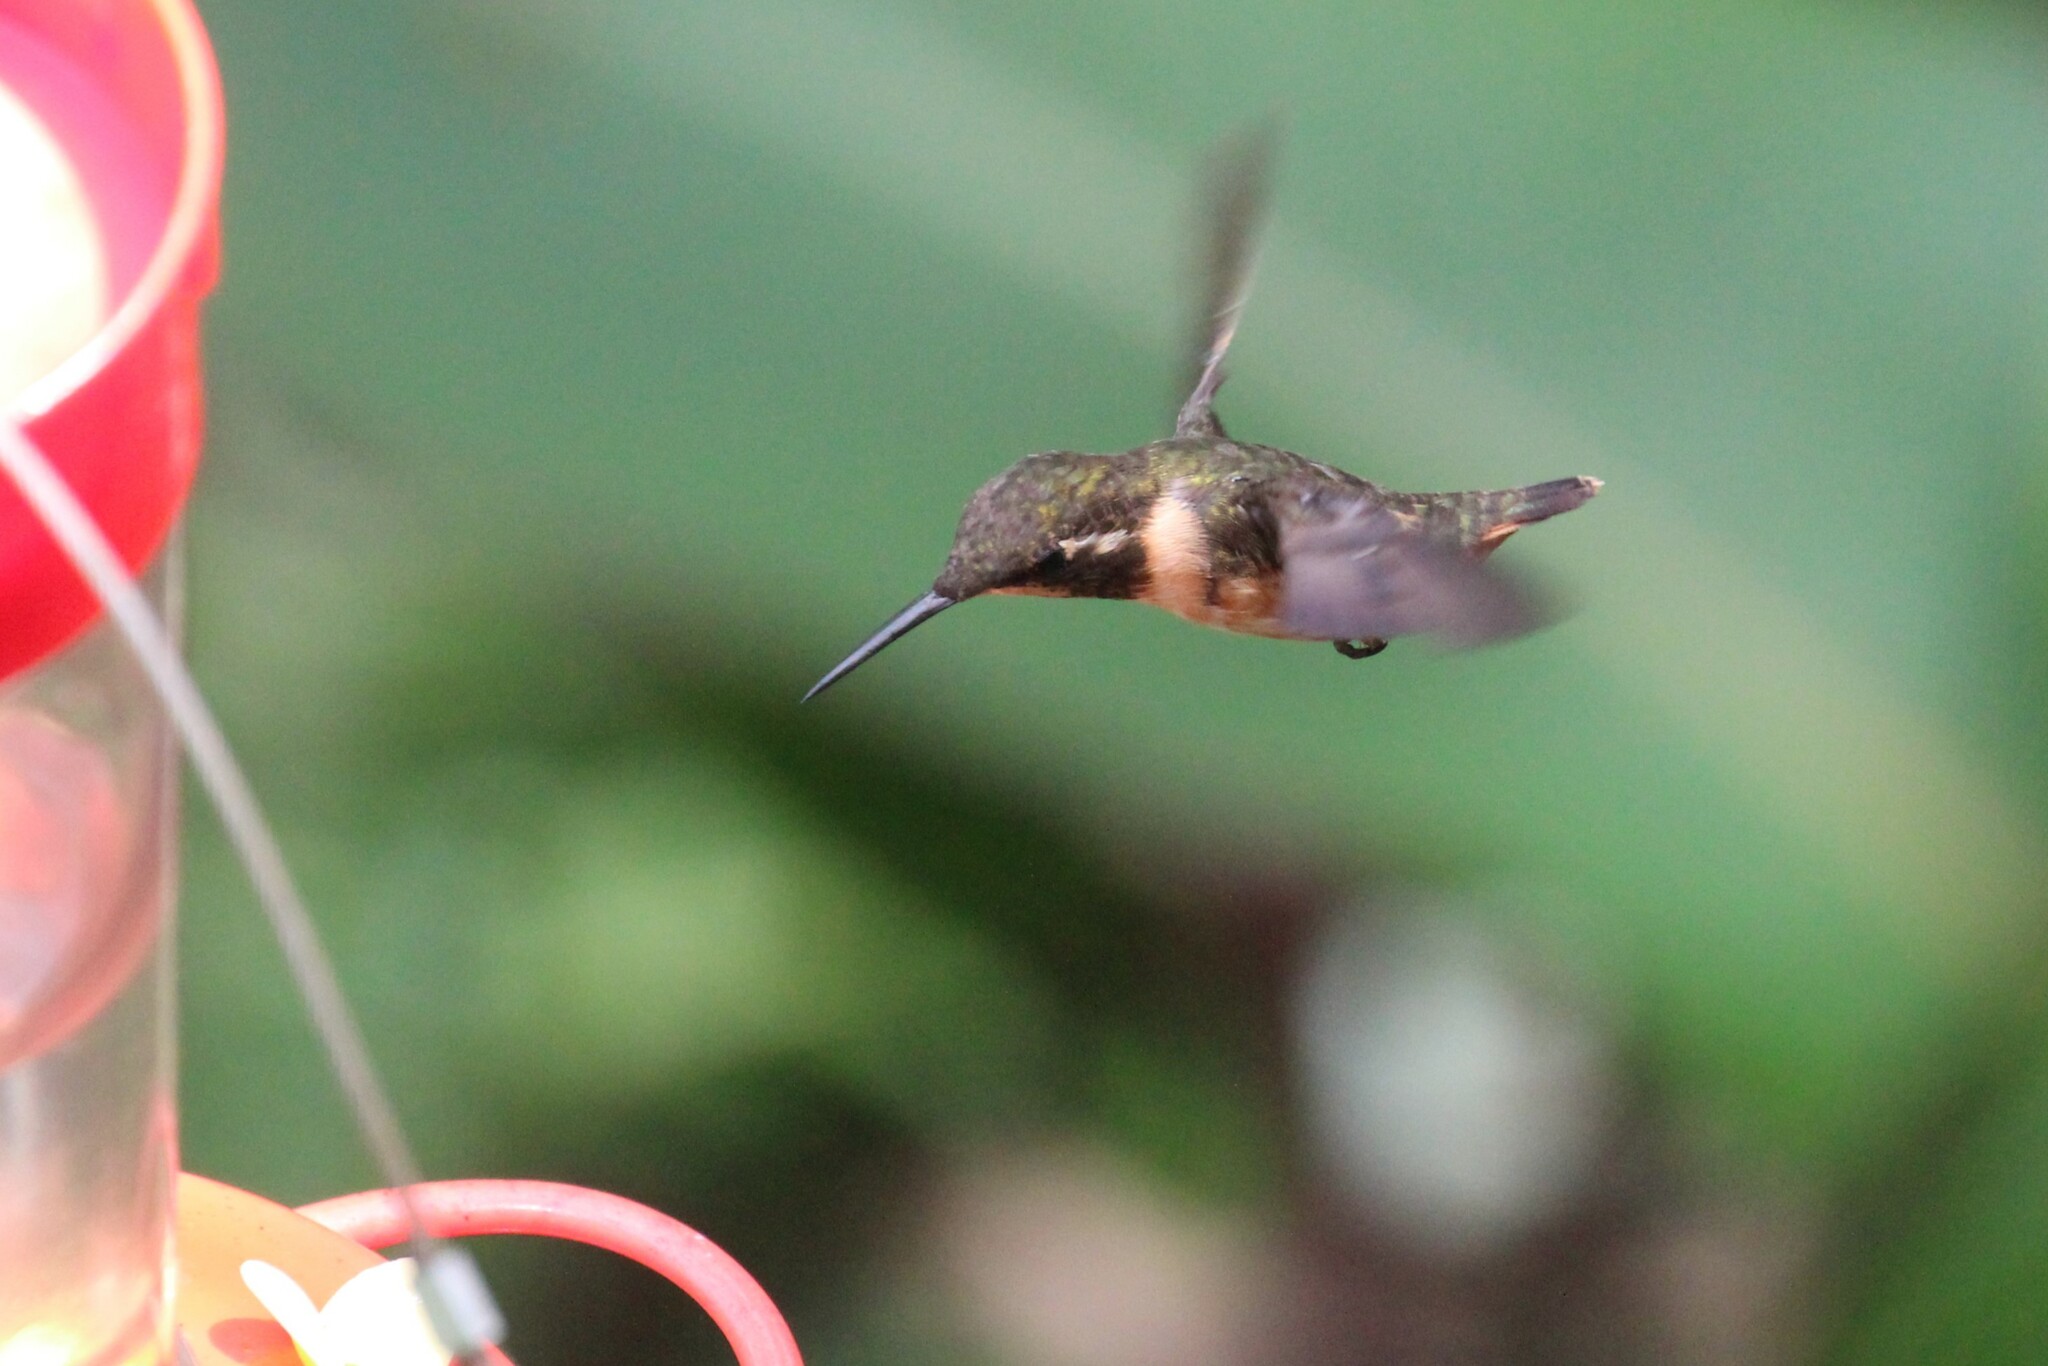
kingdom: Animalia
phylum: Chordata
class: Aves
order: Apodiformes
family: Trochilidae
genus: Calliphlox
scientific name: Calliphlox mitchellii
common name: Purple-throated woodstar
